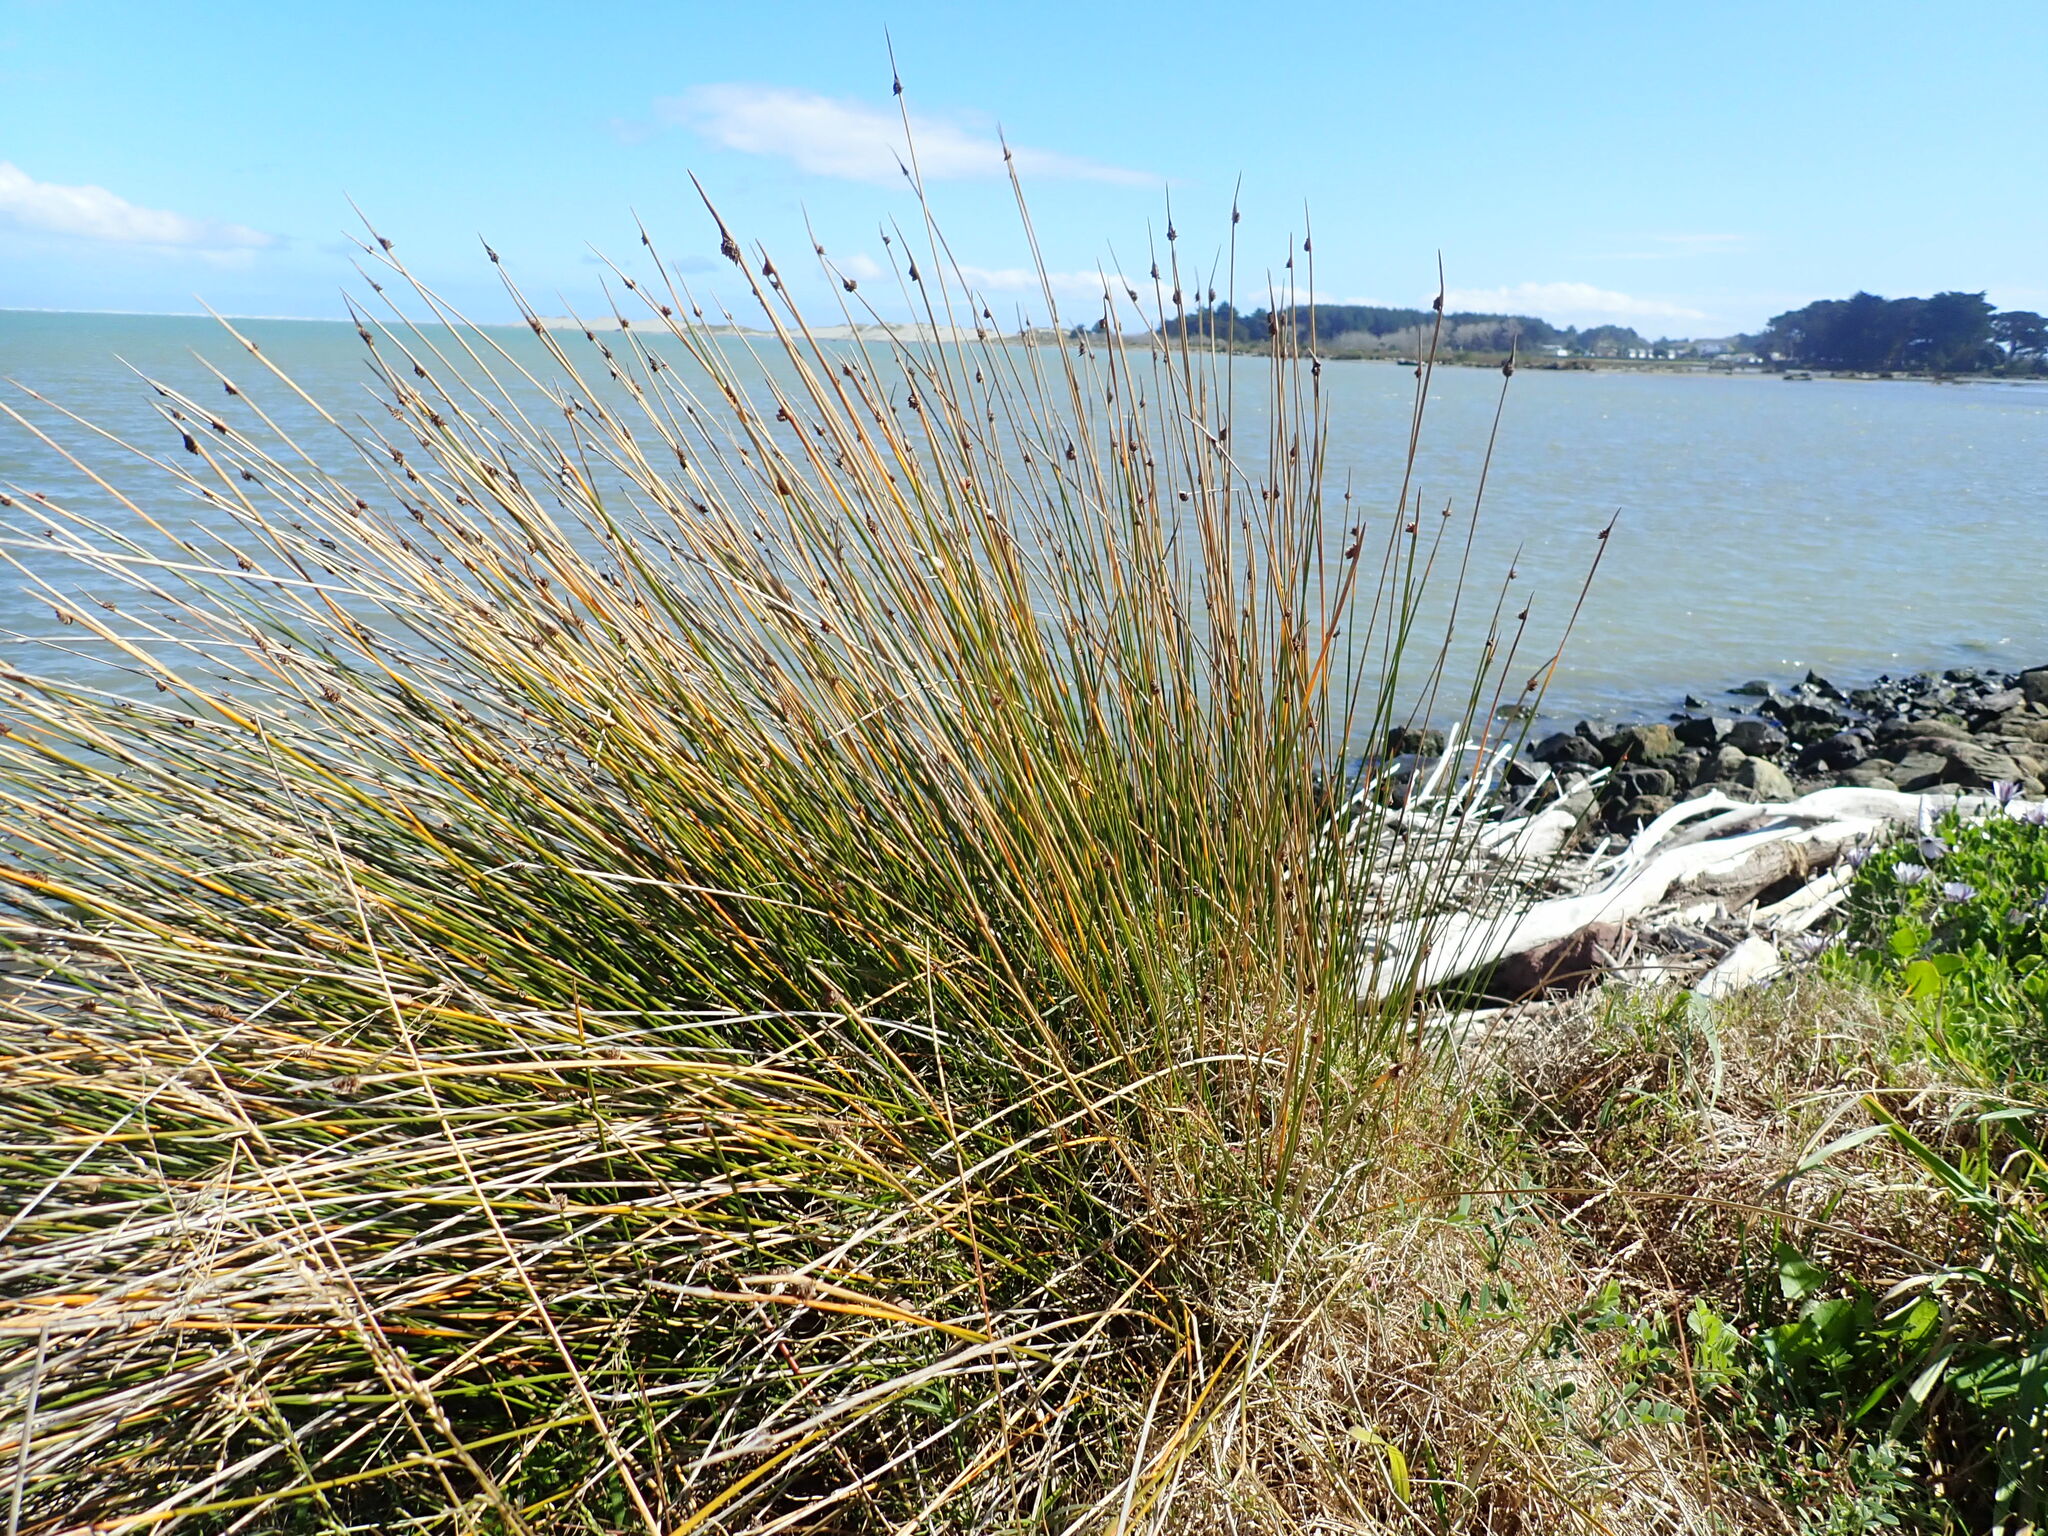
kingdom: Plantae
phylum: Tracheophyta
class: Liliopsida
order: Poales
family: Cyperaceae
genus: Ficinia
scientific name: Ficinia nodosa
